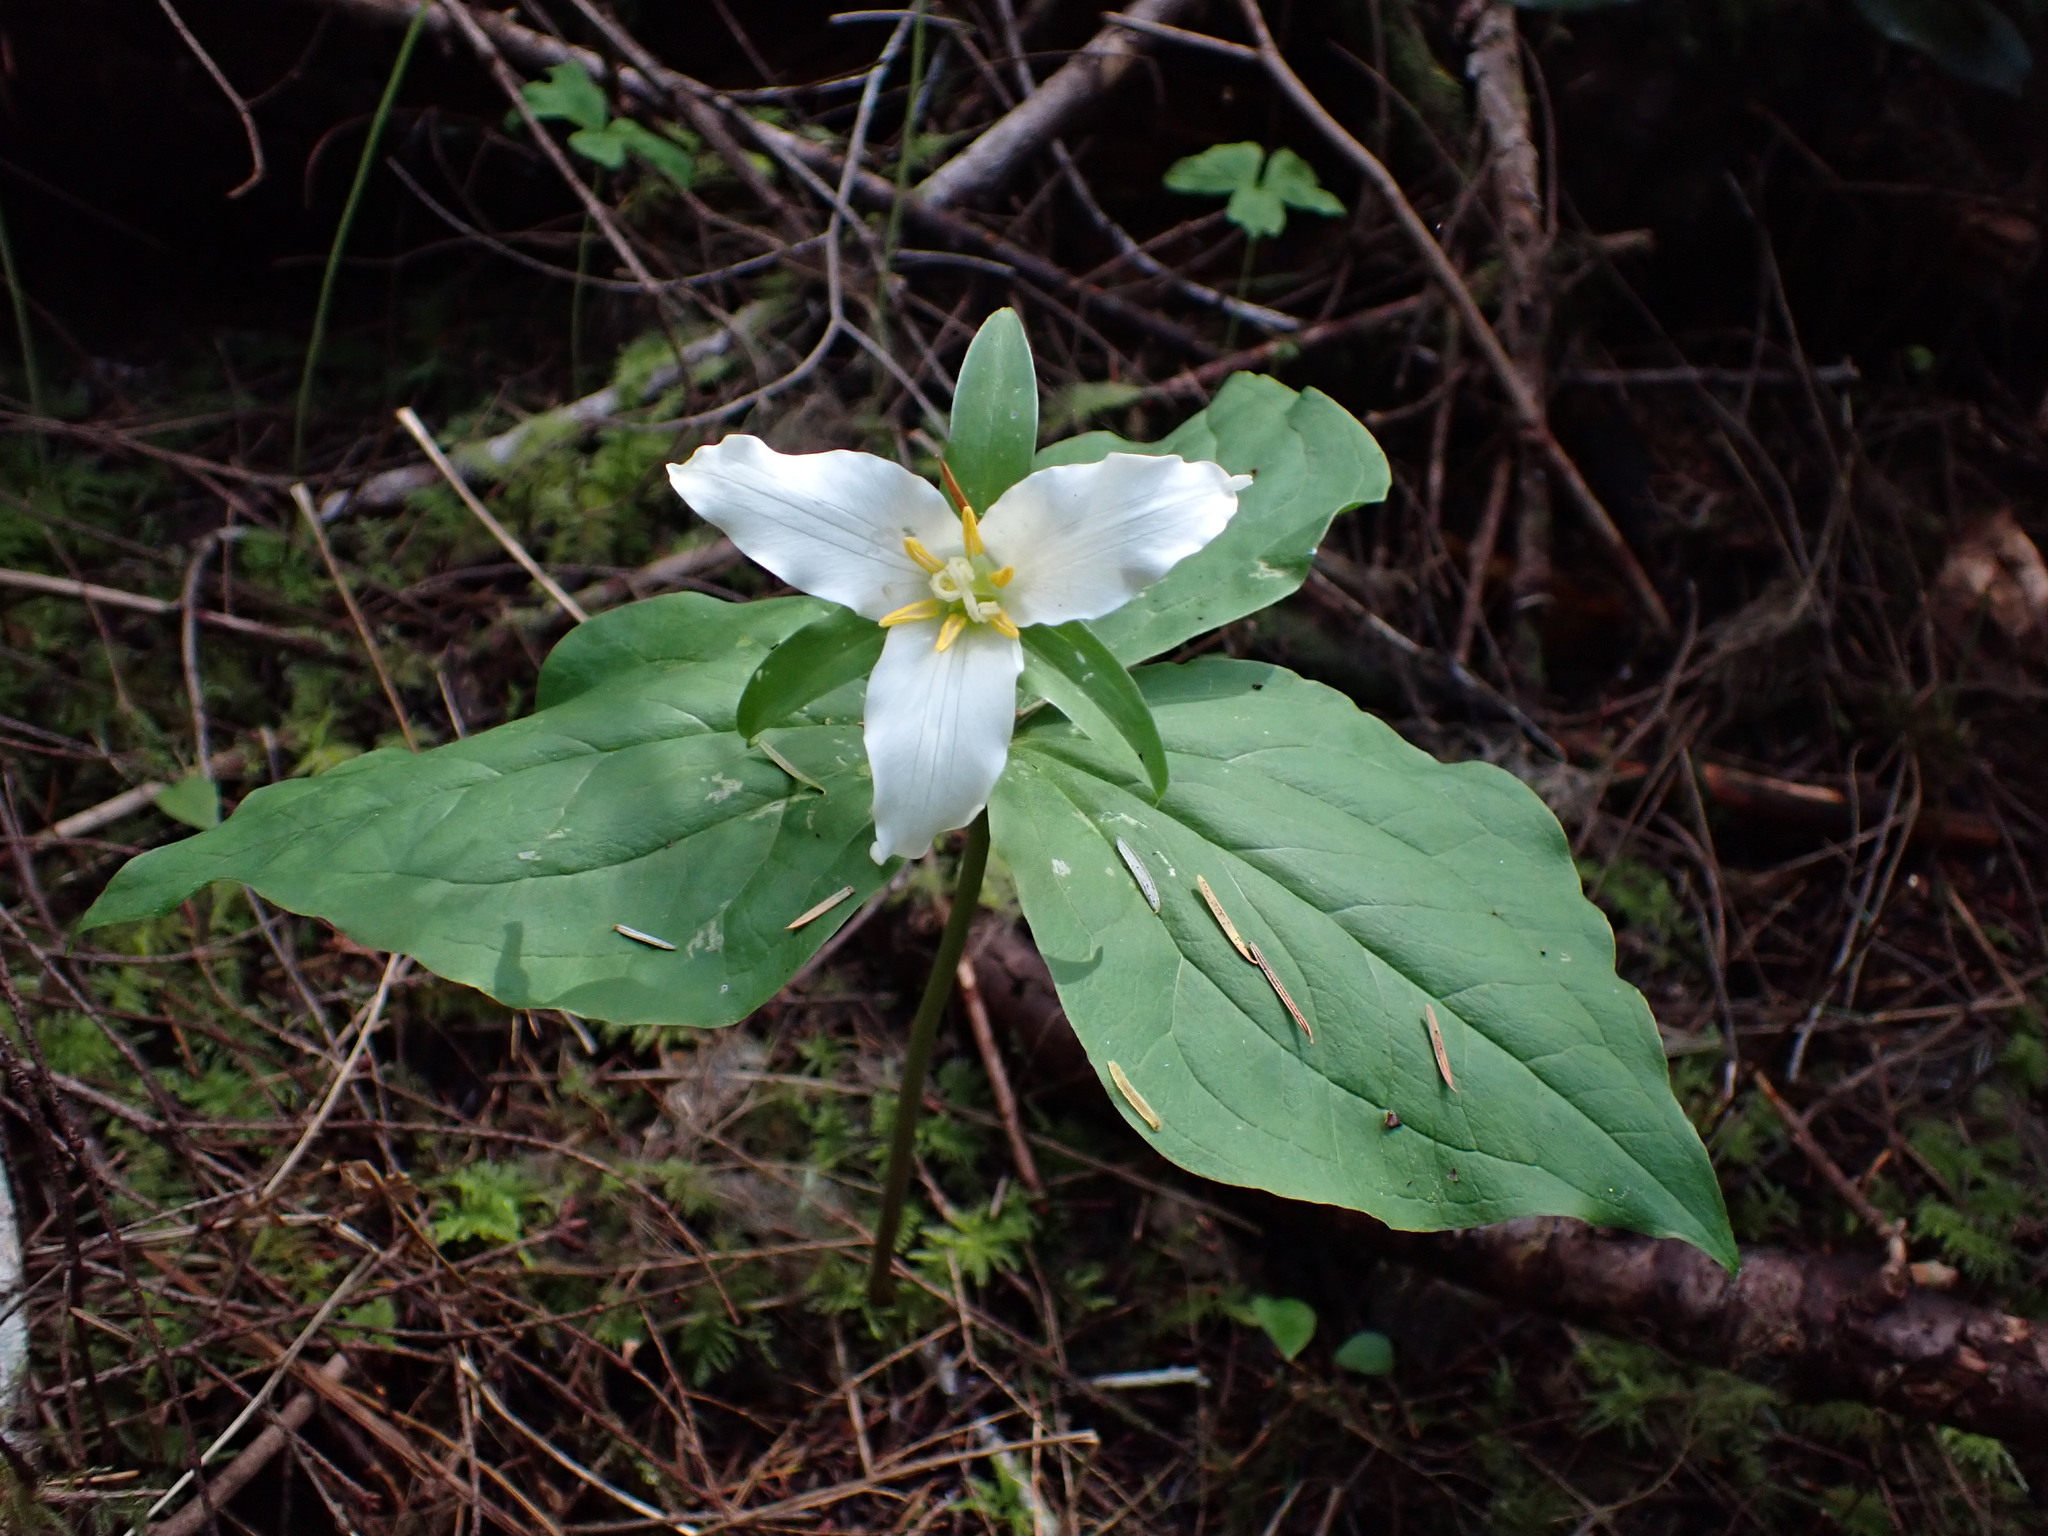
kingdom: Plantae
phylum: Tracheophyta
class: Liliopsida
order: Liliales
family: Melanthiaceae
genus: Trillium
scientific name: Trillium ovatum
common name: Pacific trillium
